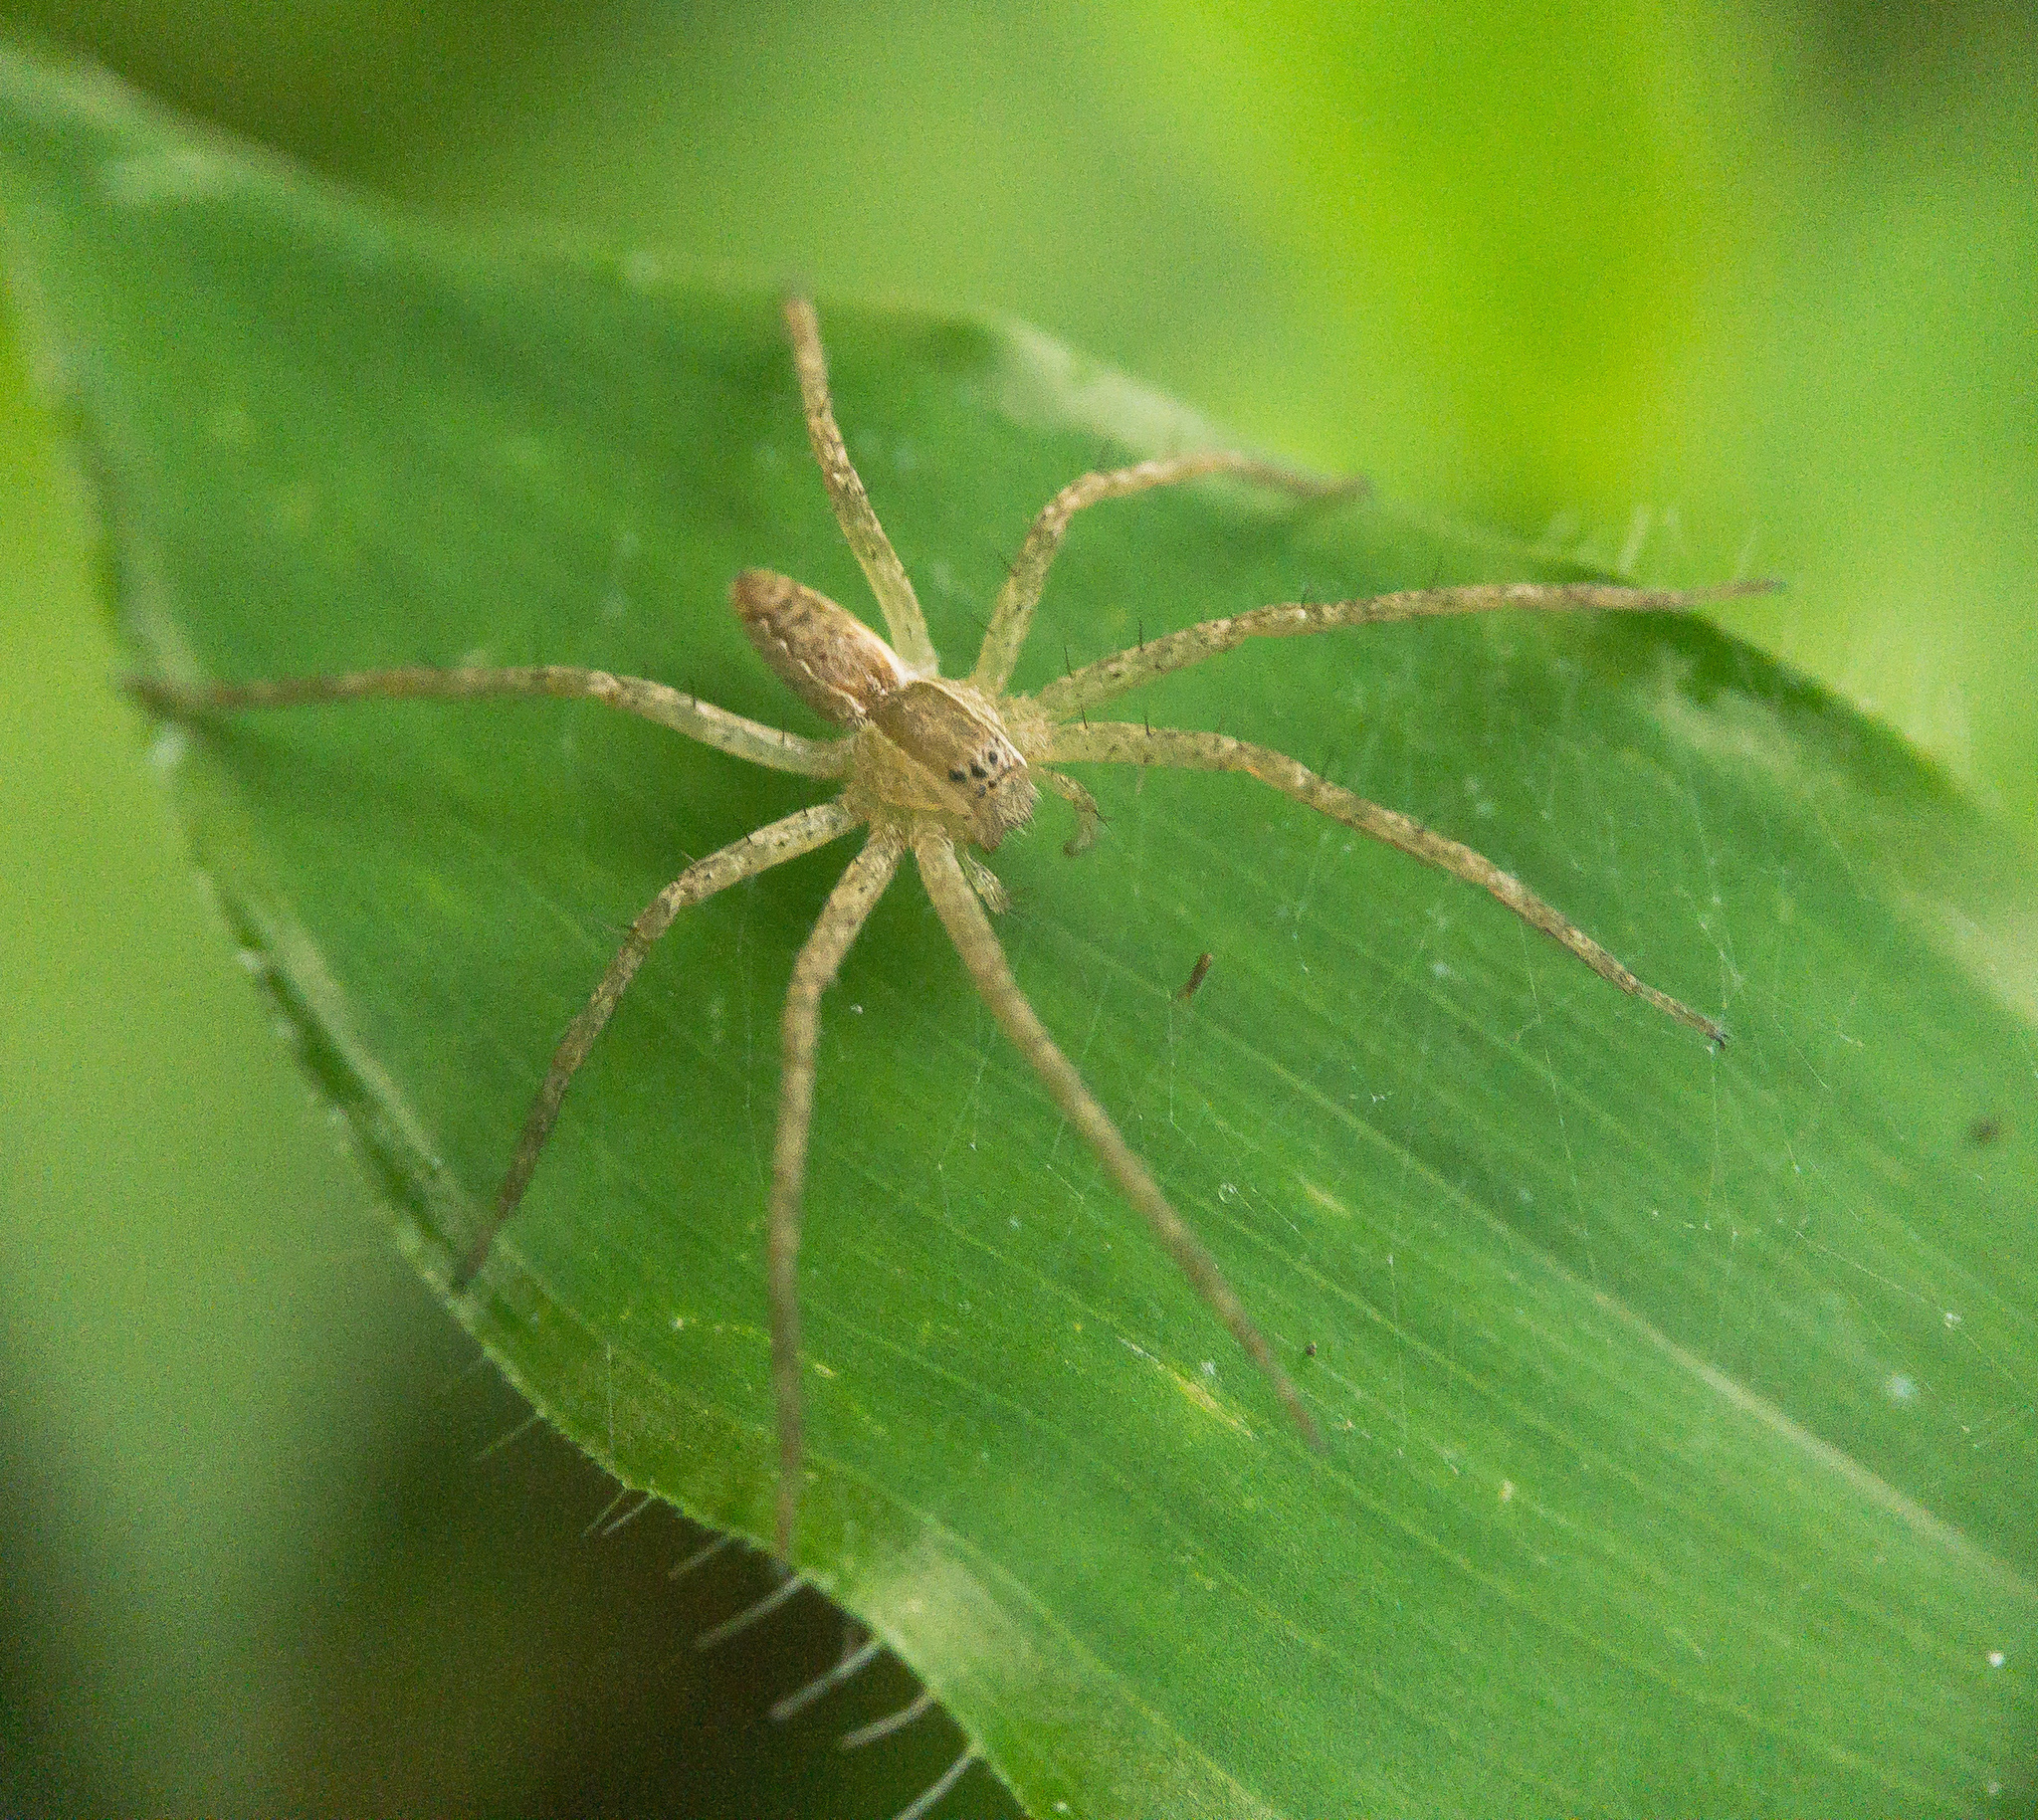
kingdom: Animalia
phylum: Arthropoda
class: Arachnida
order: Araneae
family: Pisauridae
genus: Pisaurina
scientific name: Pisaurina mira
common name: American nursery web spider
